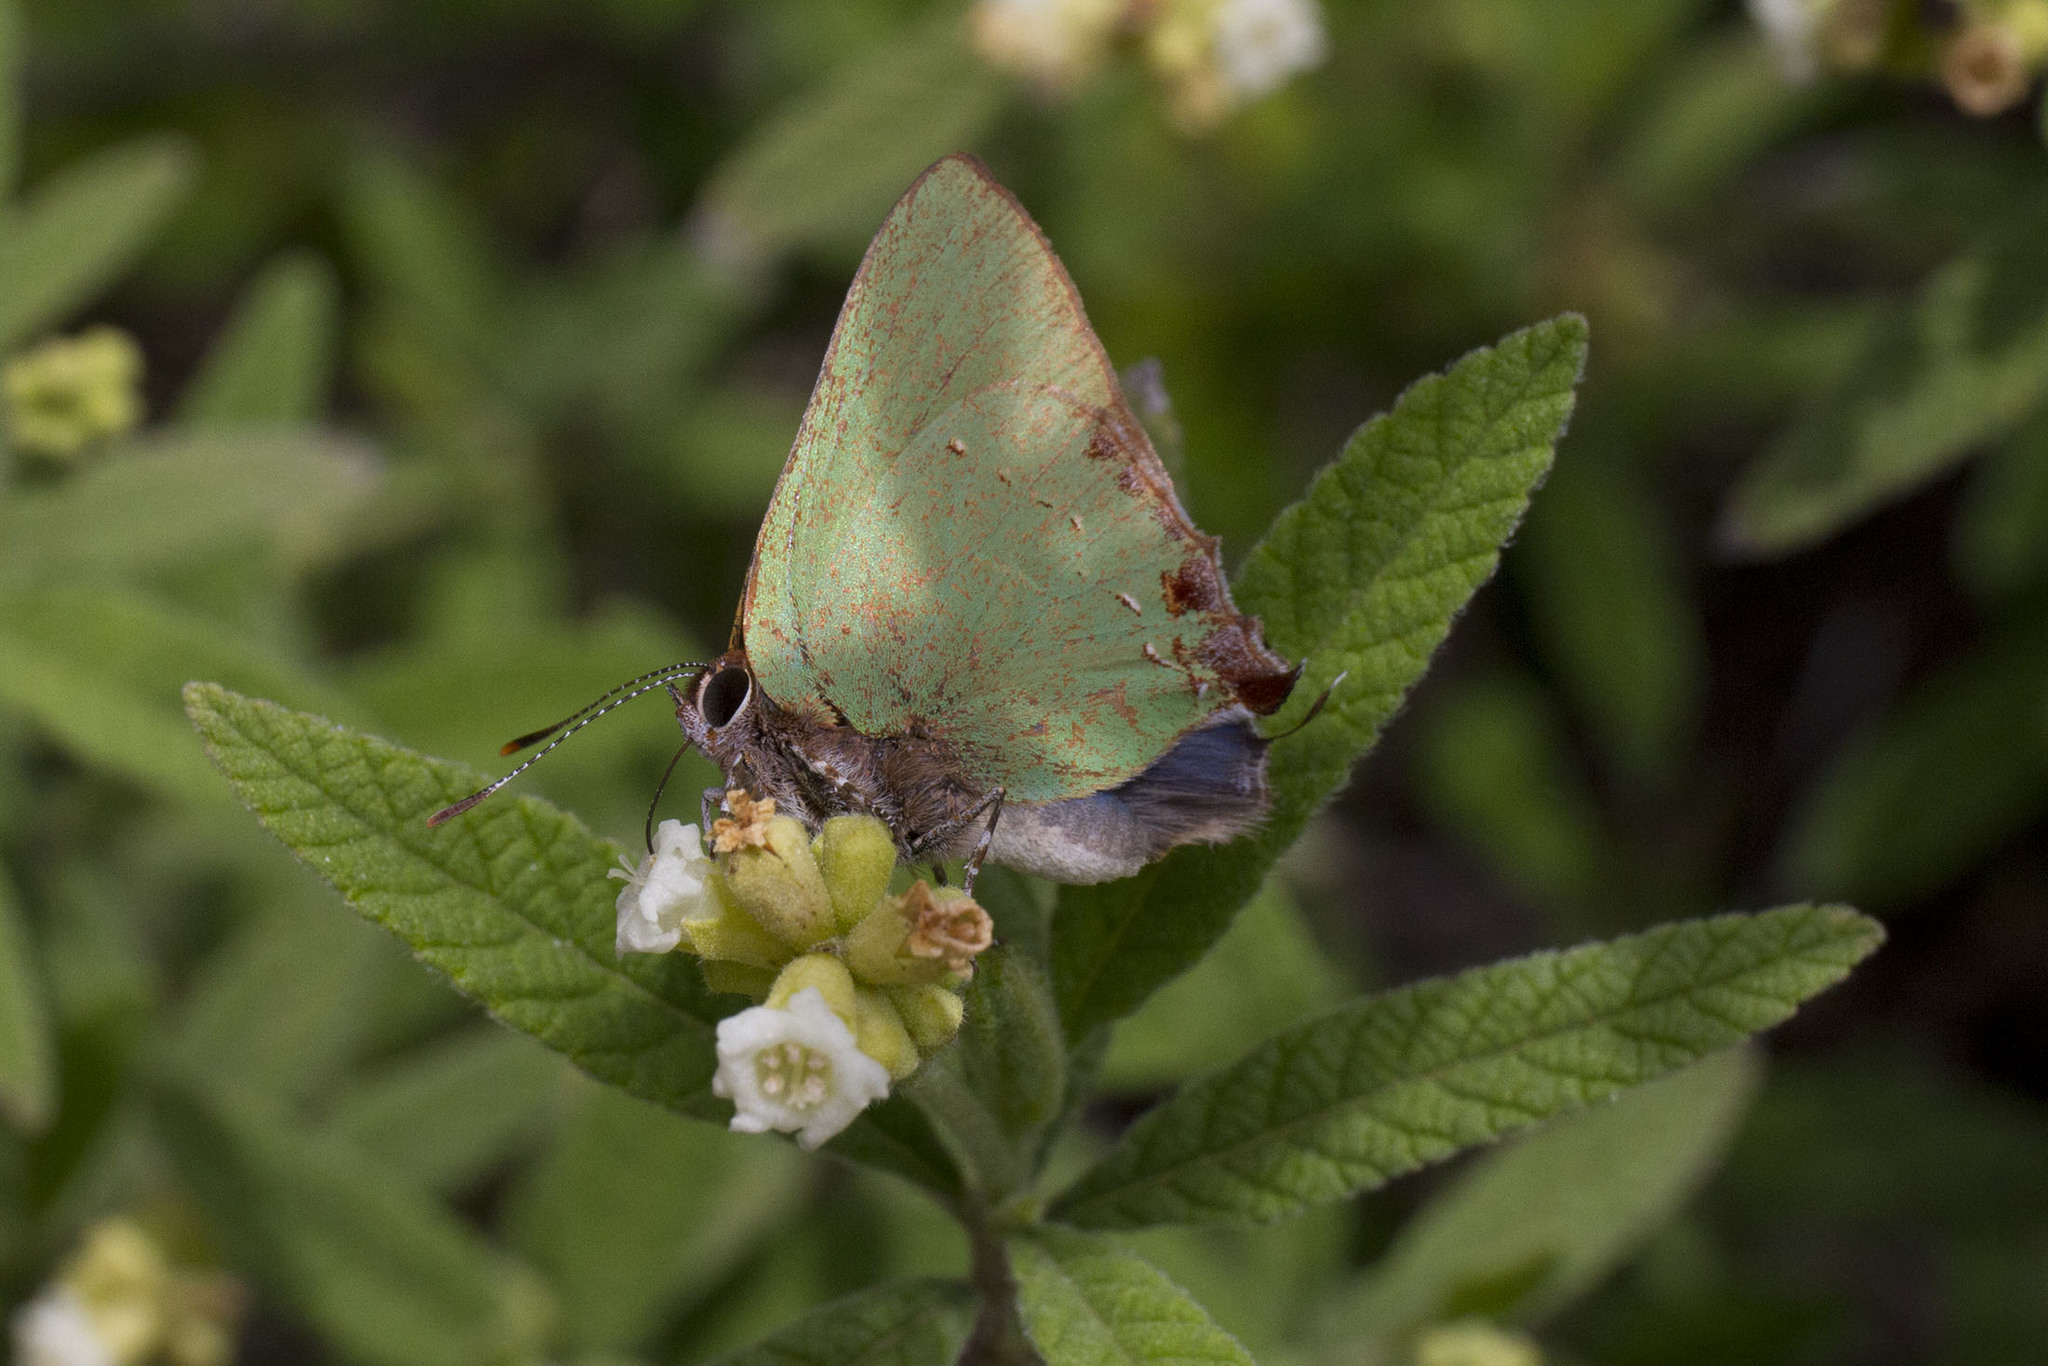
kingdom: Animalia
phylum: Arthropoda
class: Insecta
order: Lepidoptera
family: Lycaenidae
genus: Cyanophrys
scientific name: Cyanophrys miserabilis
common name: Clench's greenstreak
